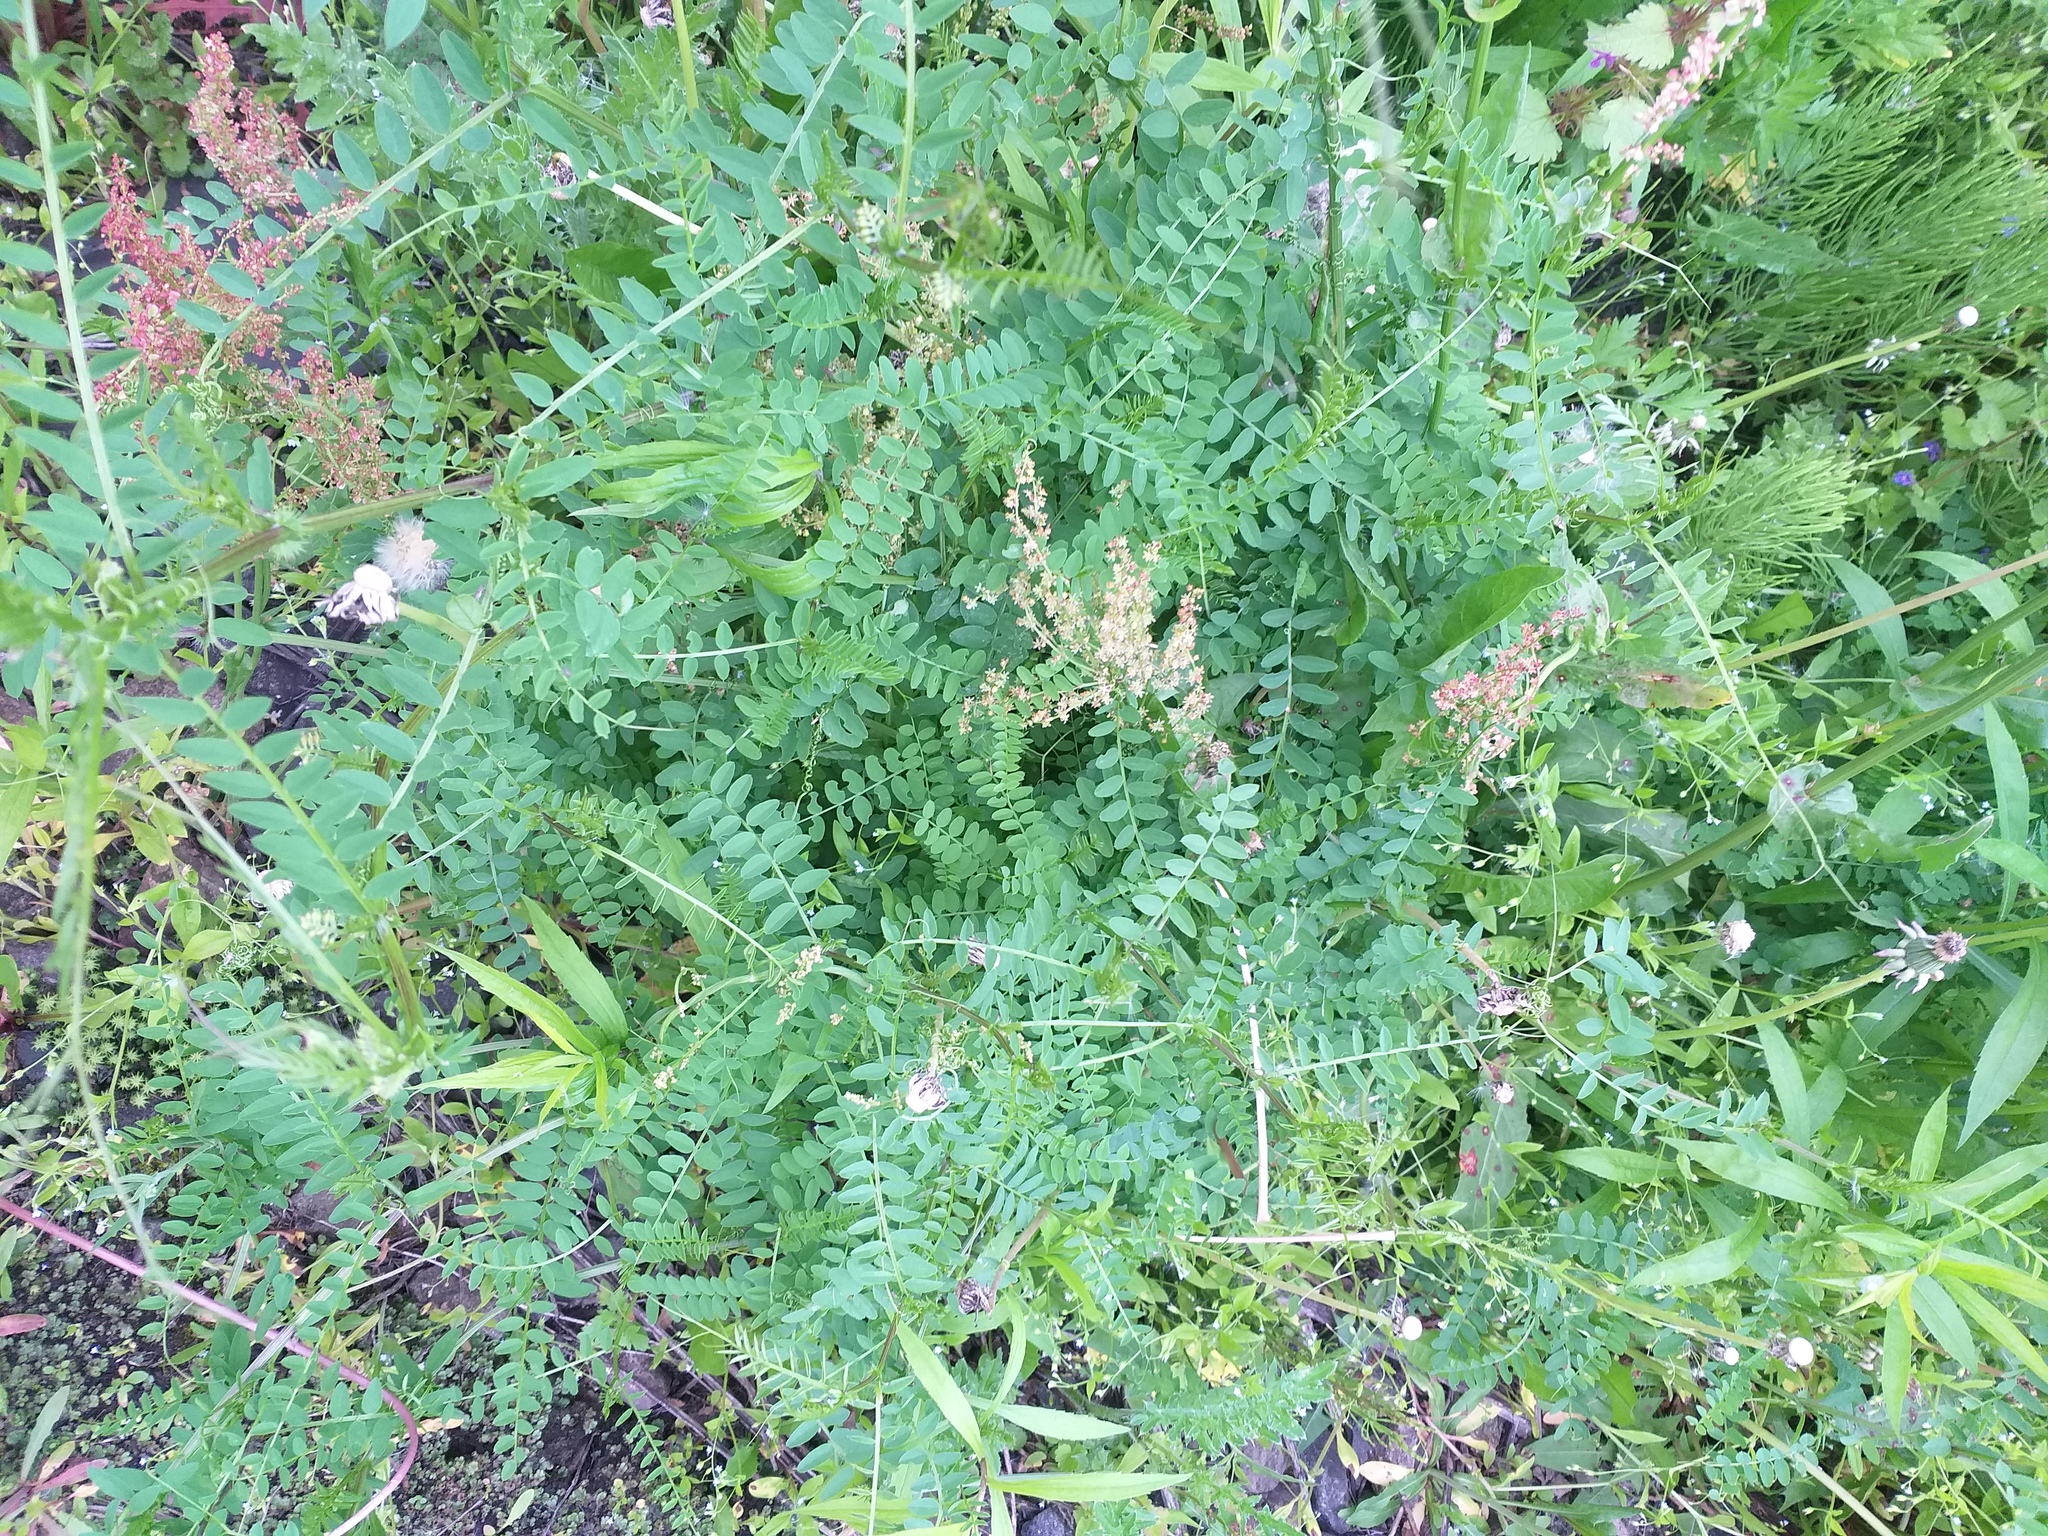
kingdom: Plantae
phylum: Tracheophyta
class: Magnoliopsida
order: Fabales
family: Fabaceae
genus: Vicia
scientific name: Vicia sylvatica
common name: Wood vetch
